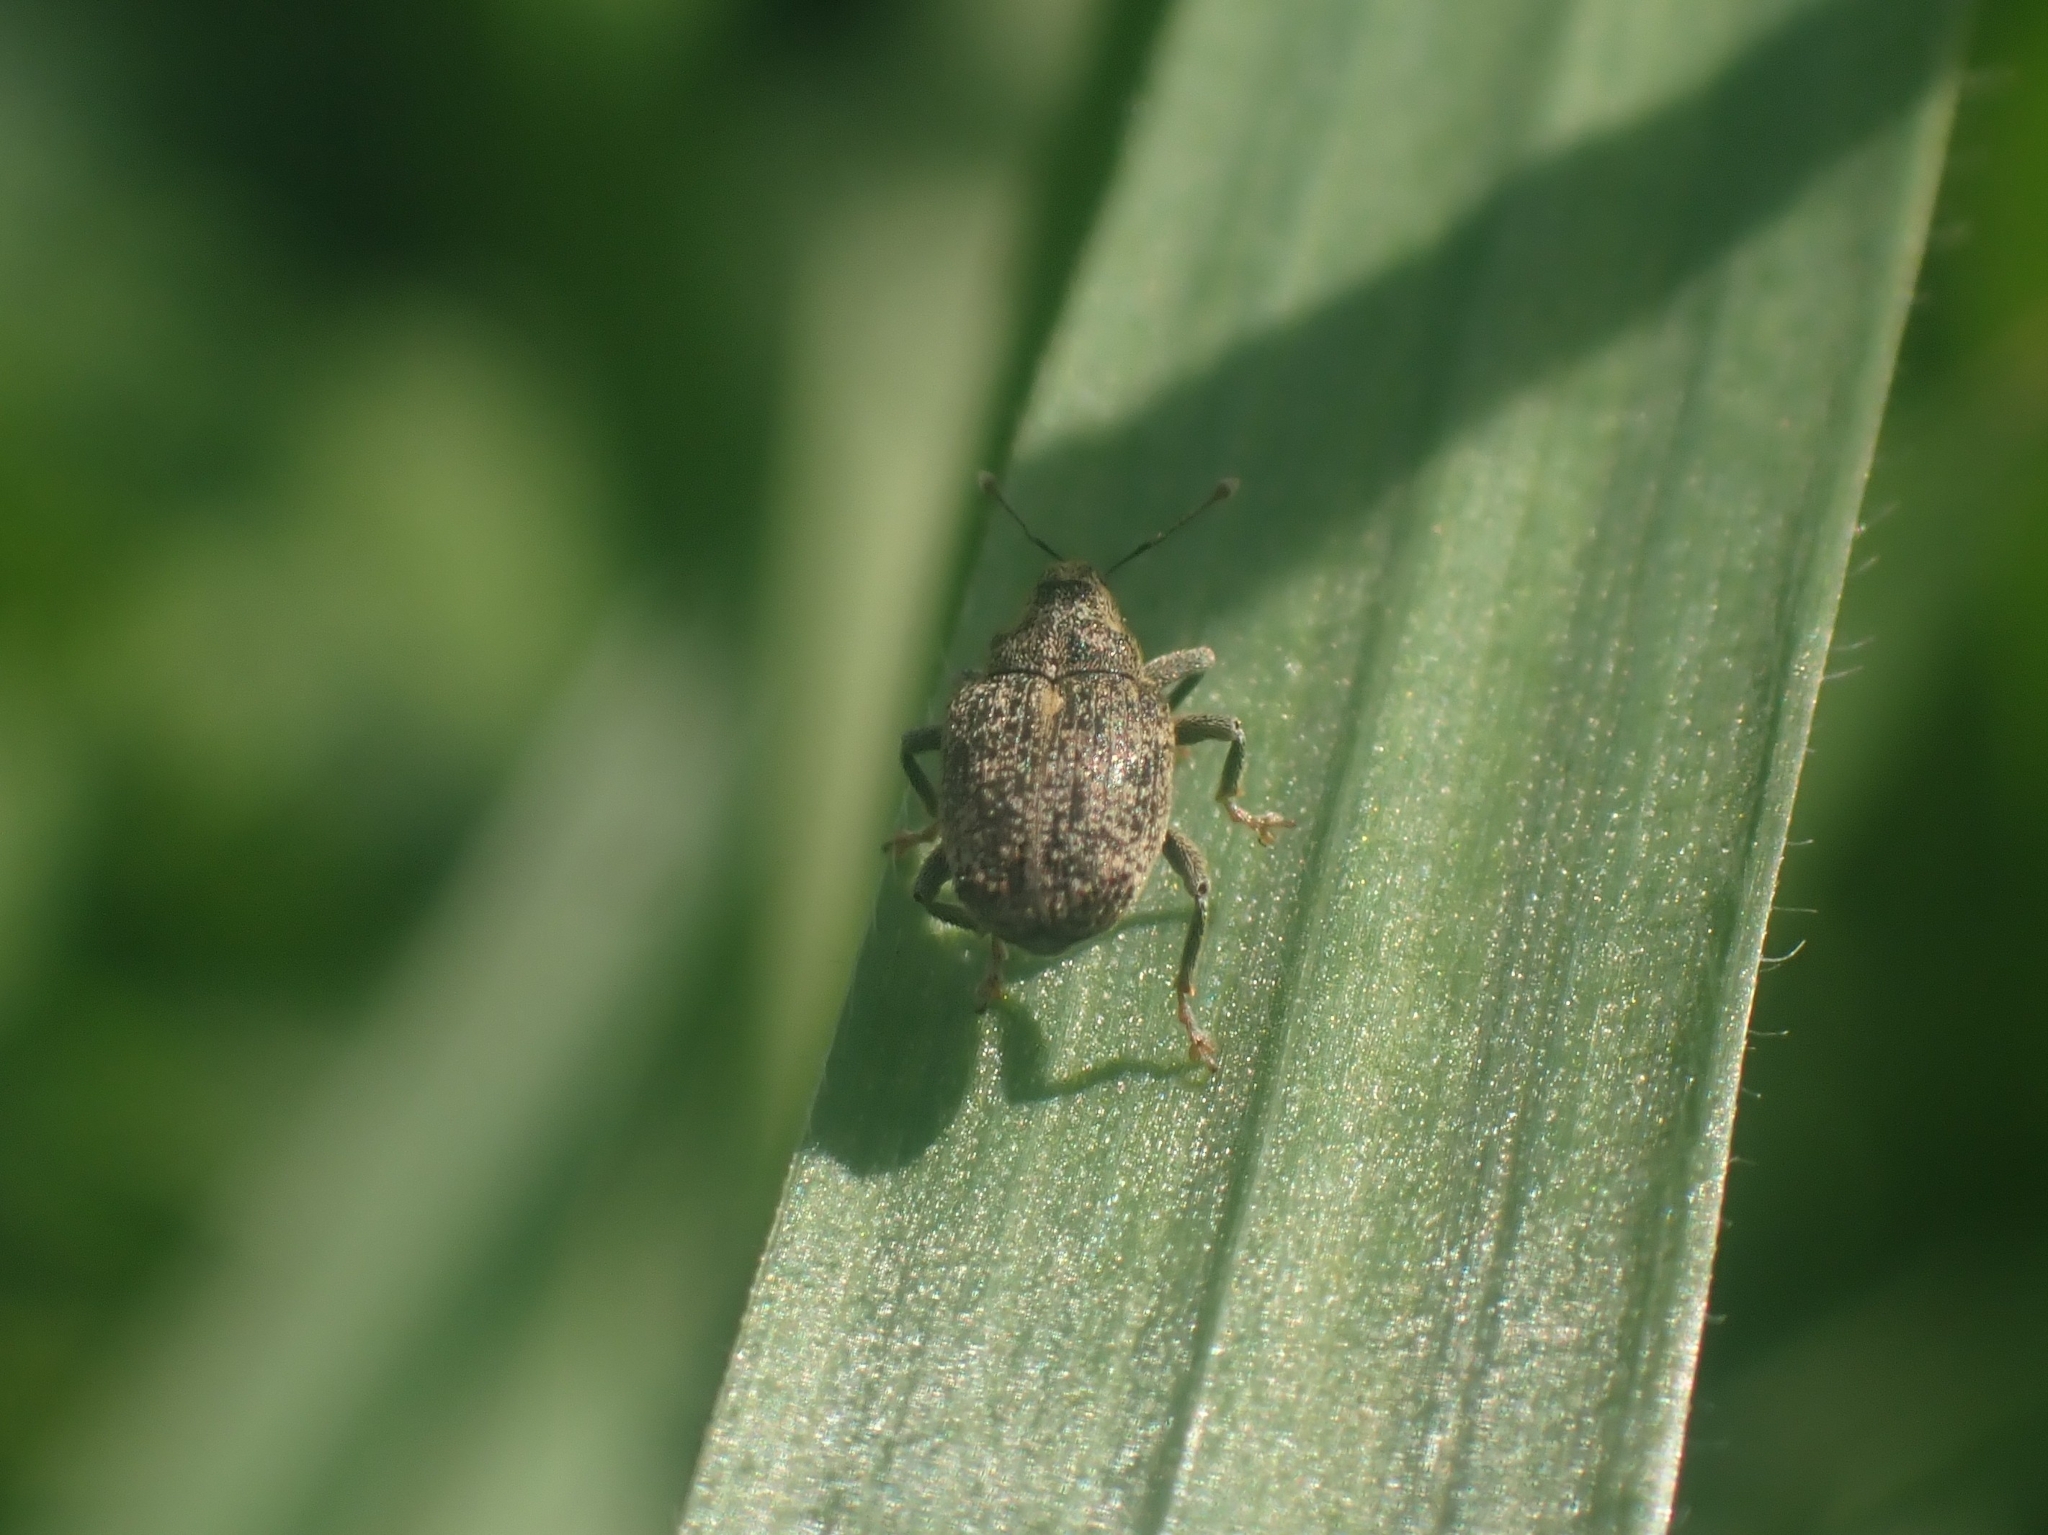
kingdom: Animalia
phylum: Arthropoda
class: Insecta
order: Coleoptera
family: Curculionidae
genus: Ceutorhynchus
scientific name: Ceutorhynchus pallidactylus
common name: Cabbage stem weavil
